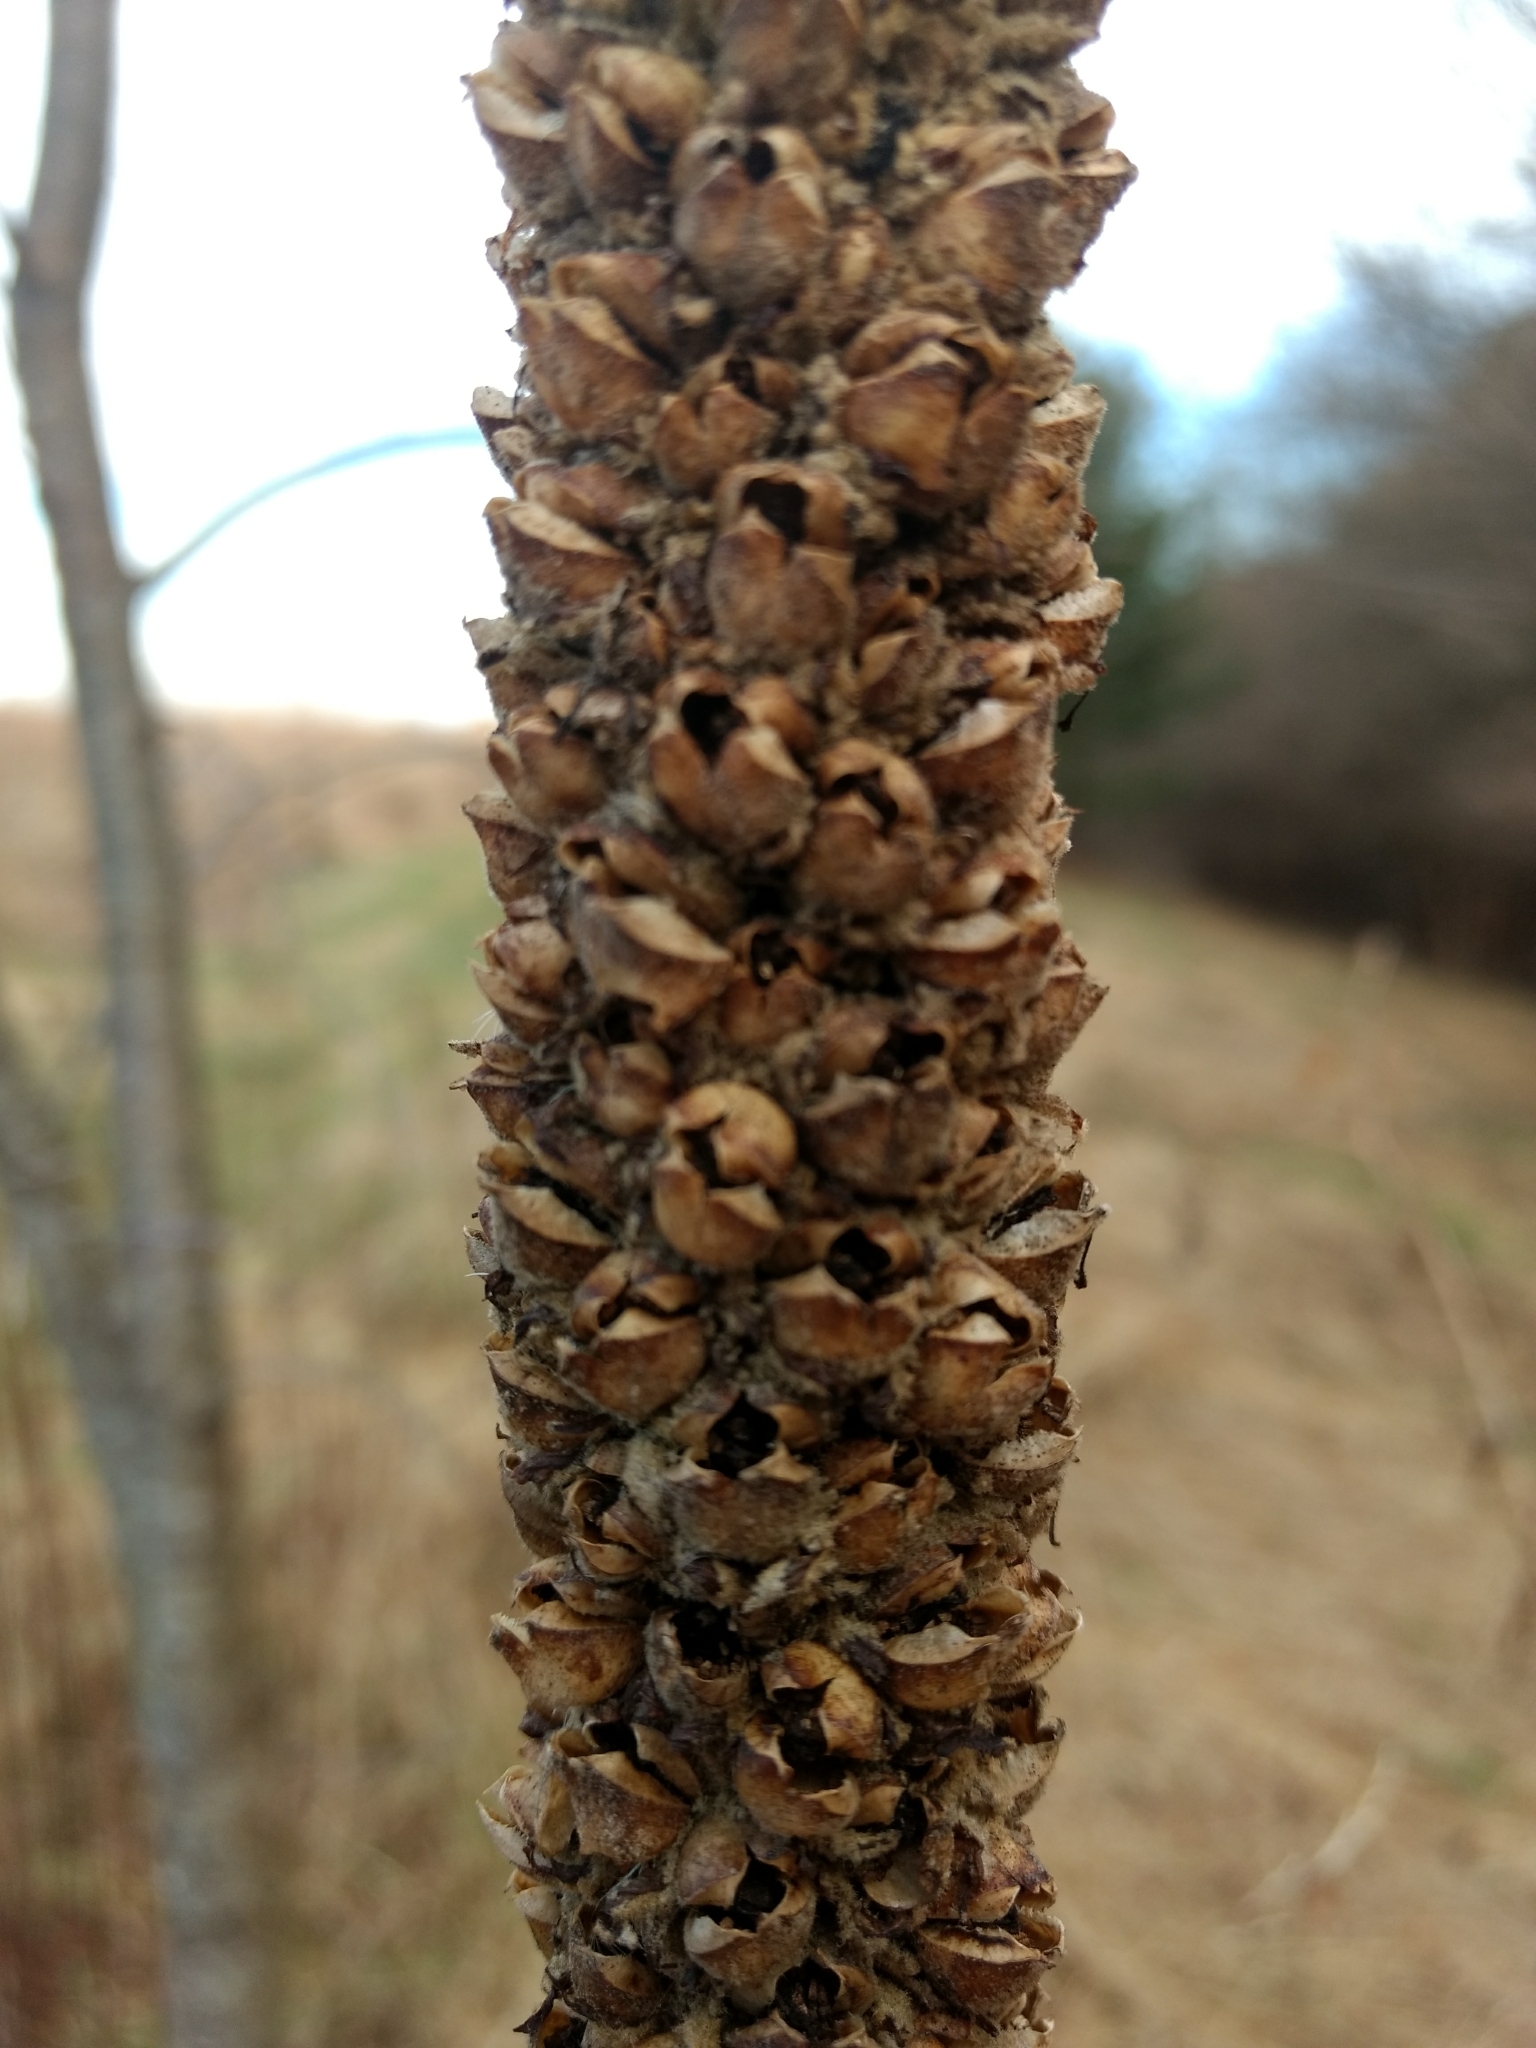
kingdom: Plantae
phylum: Tracheophyta
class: Magnoliopsida
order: Lamiales
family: Scrophulariaceae
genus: Verbascum
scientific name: Verbascum thapsus
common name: Common mullein
